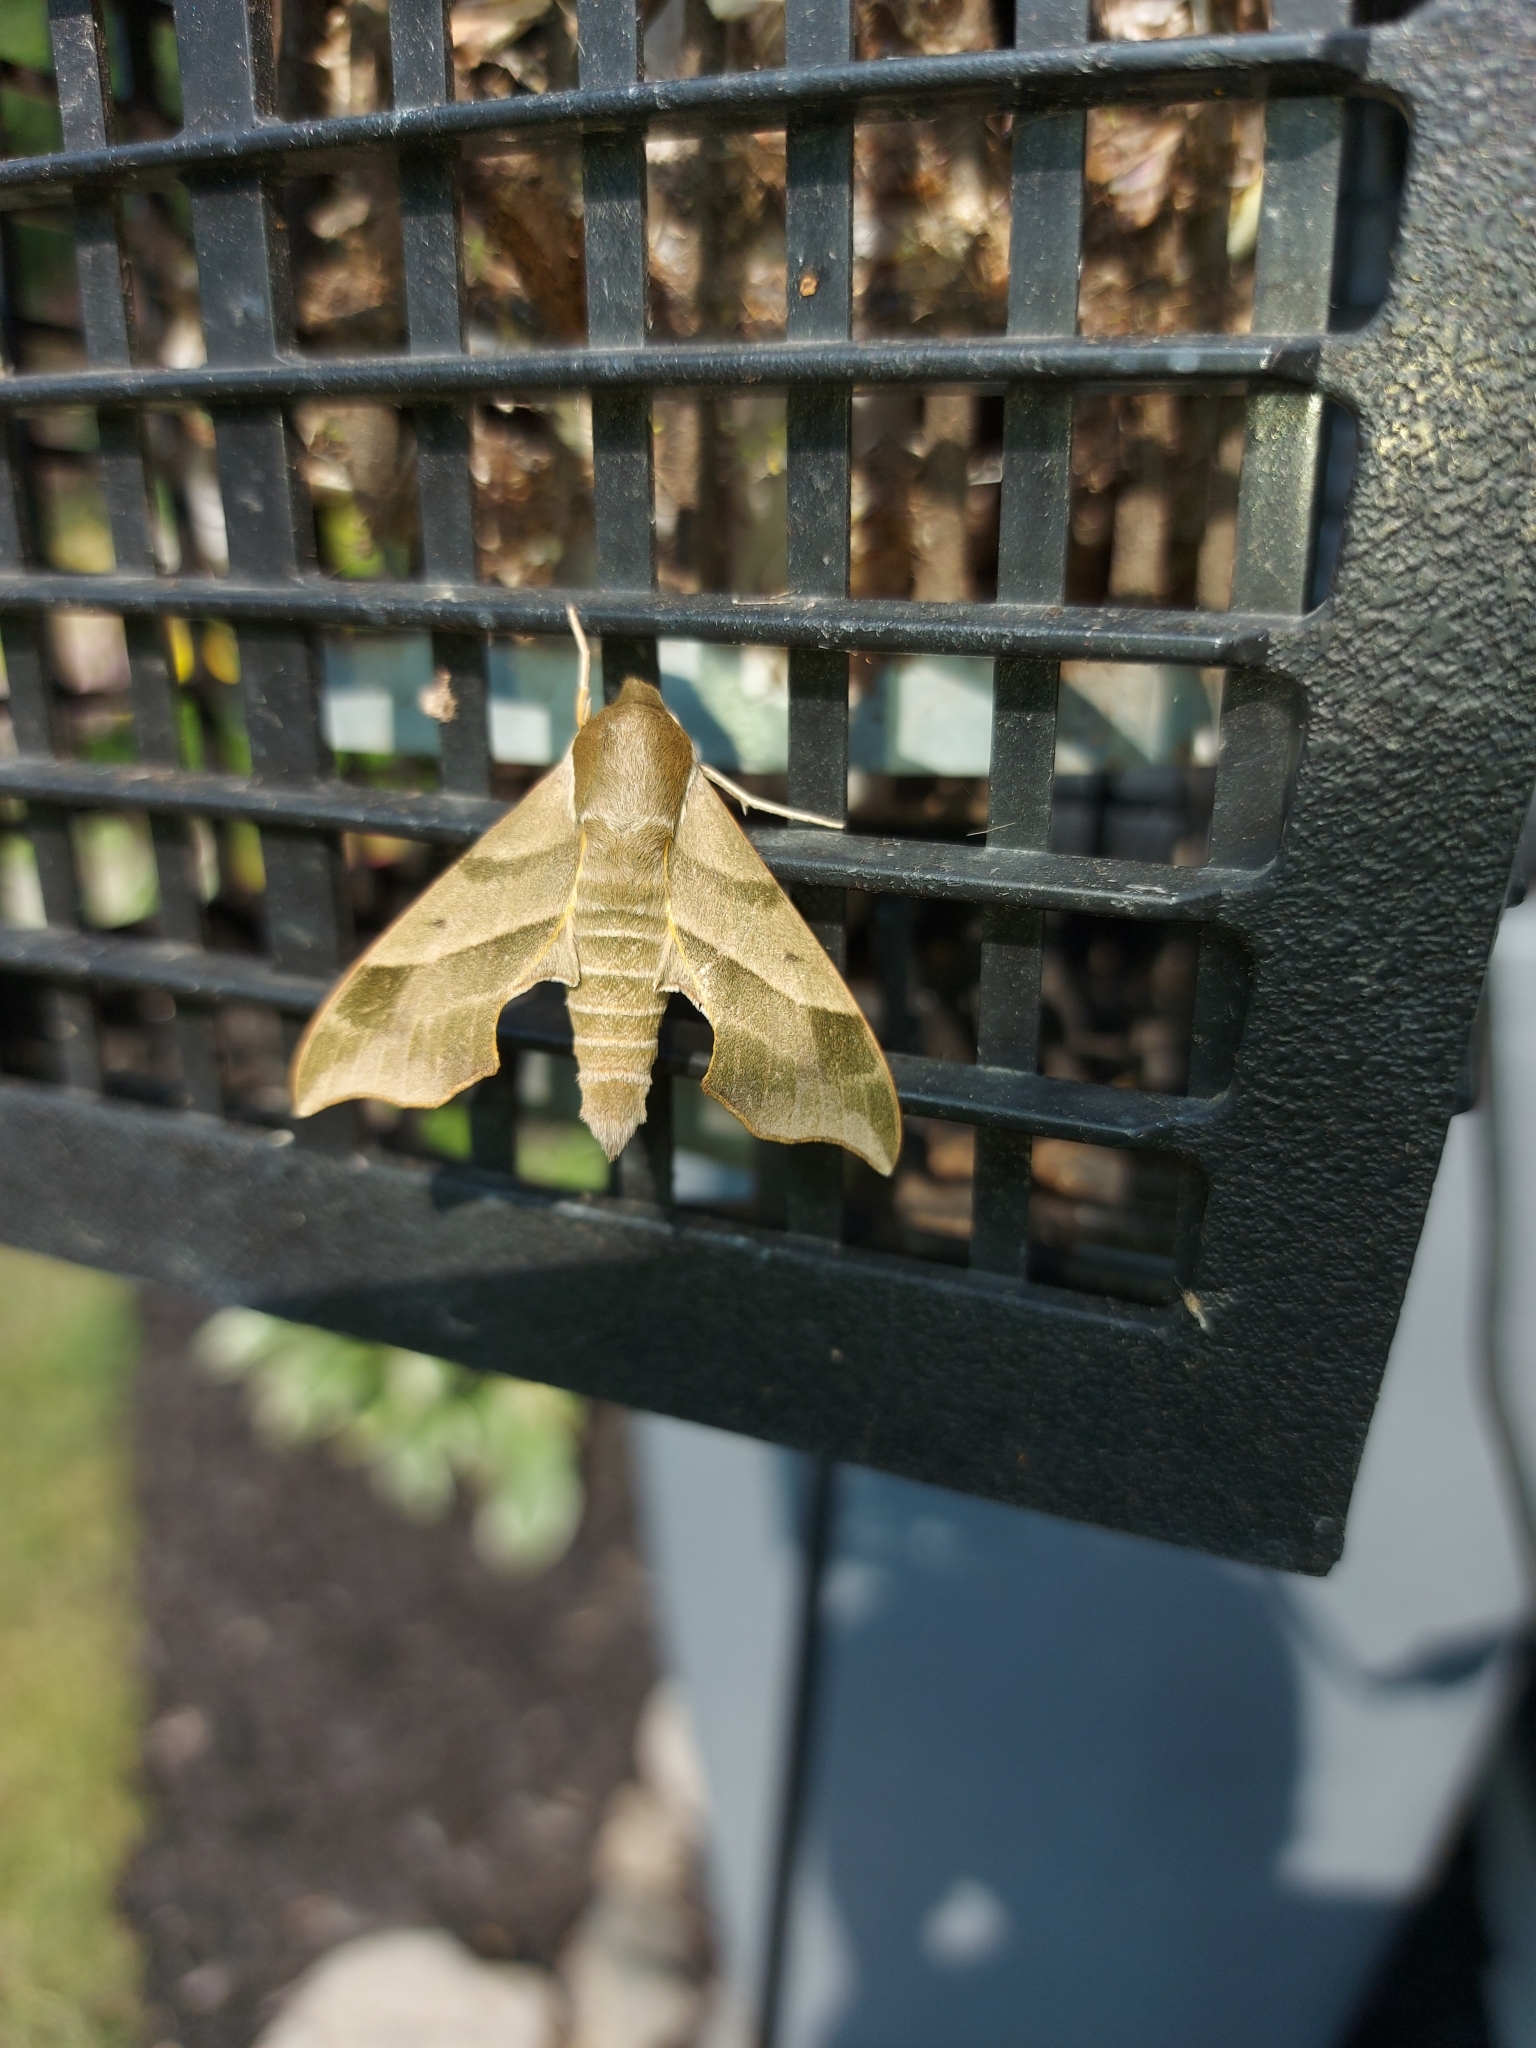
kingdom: Animalia
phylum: Arthropoda
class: Insecta
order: Lepidoptera
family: Sphingidae
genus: Darapsa
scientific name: Darapsa myron
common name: Hog sphinx
